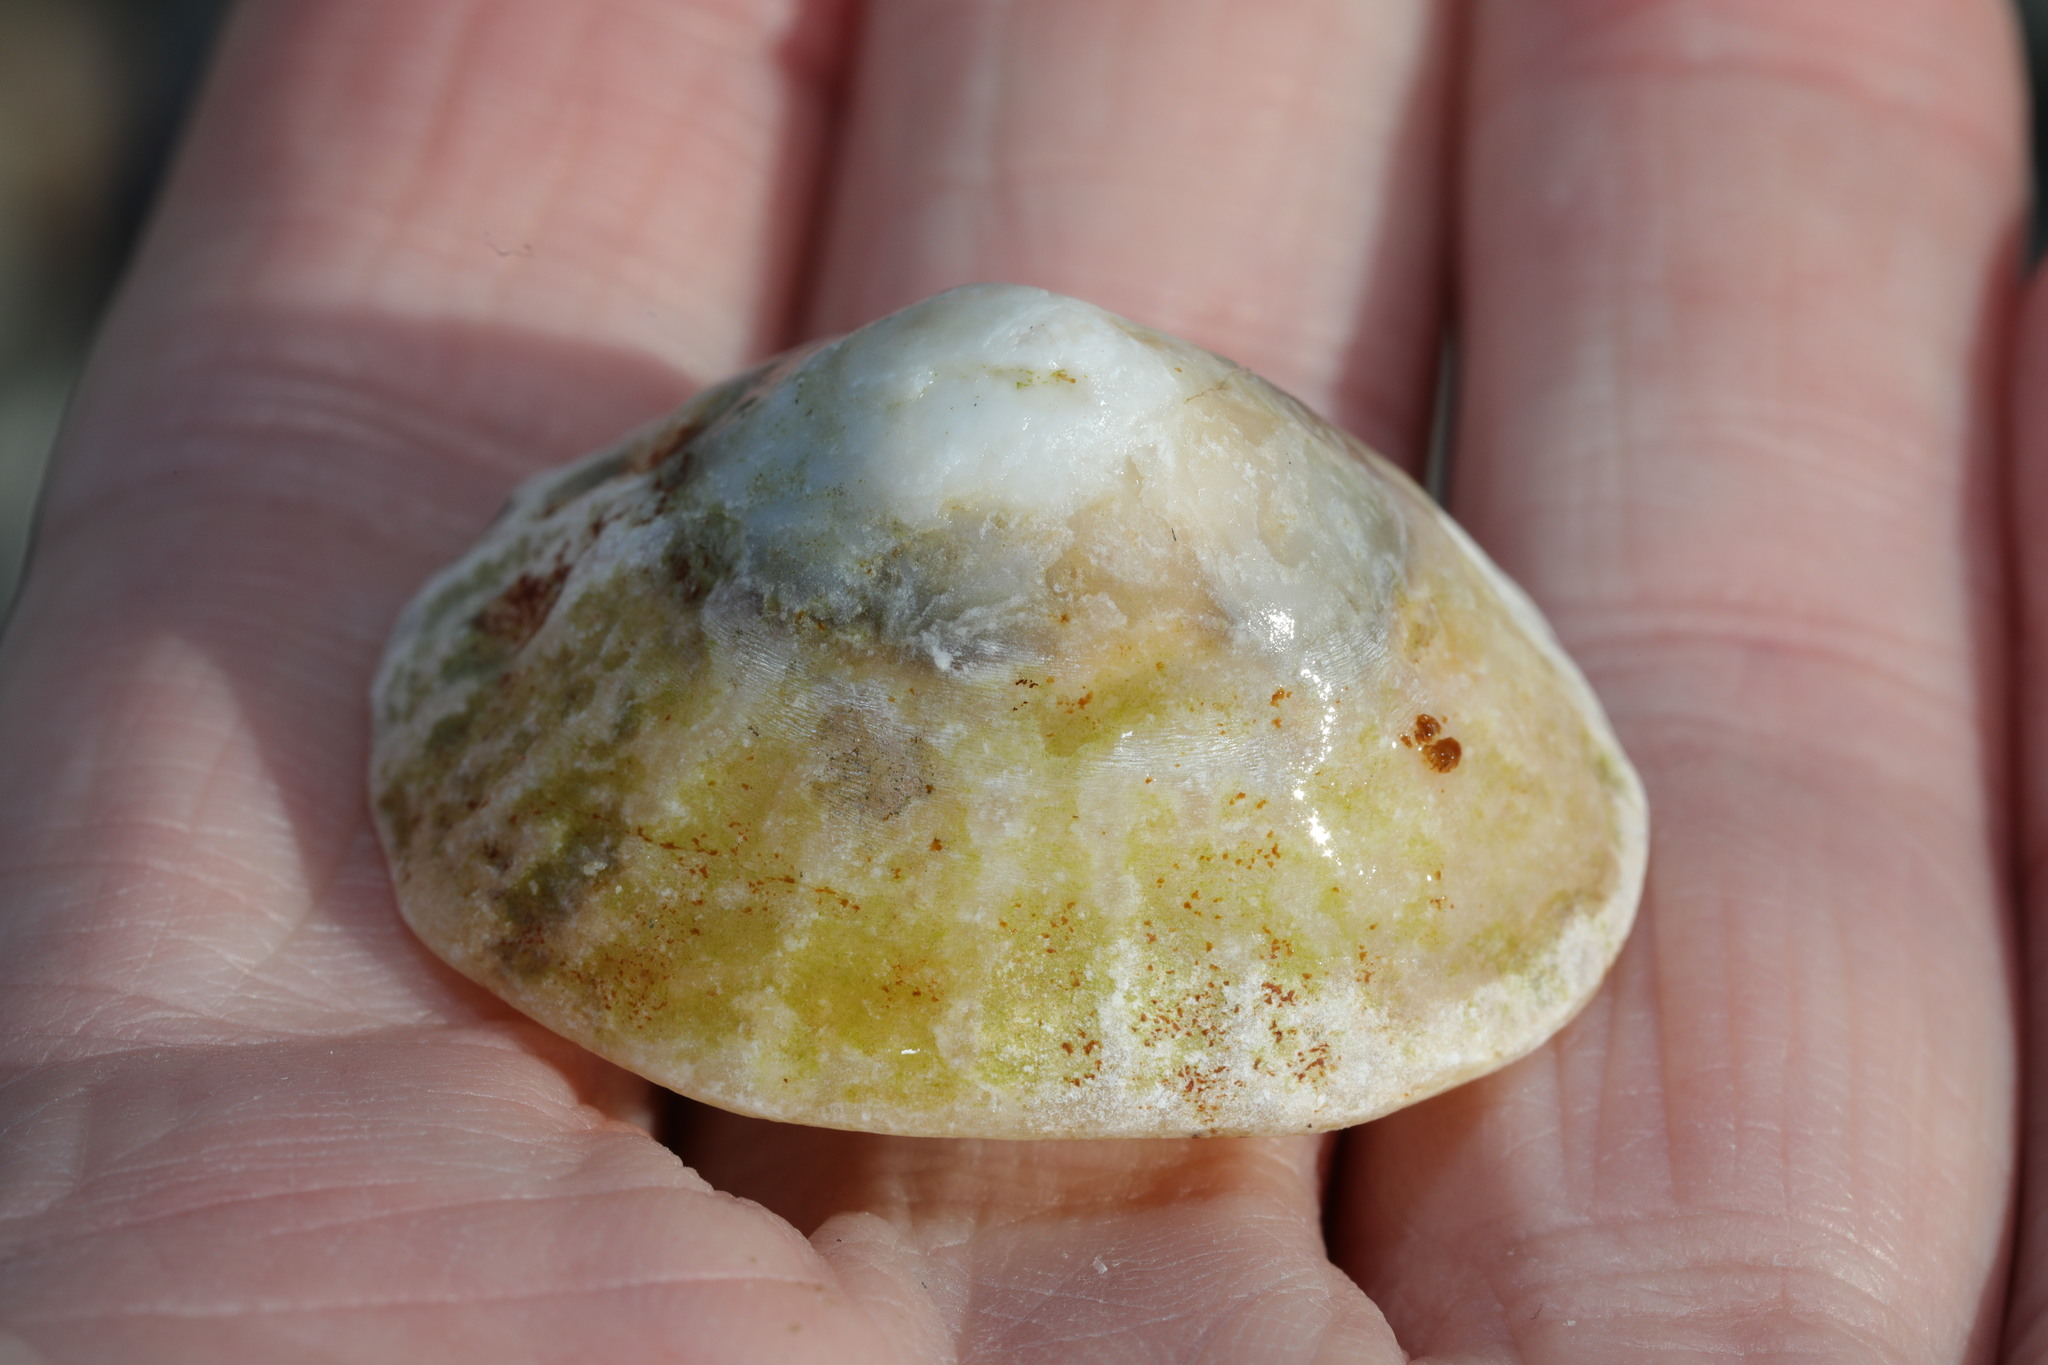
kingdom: Animalia
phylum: Mollusca
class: Gastropoda
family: Patellidae
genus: Patella
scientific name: Patella vulgata
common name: Common limpet
